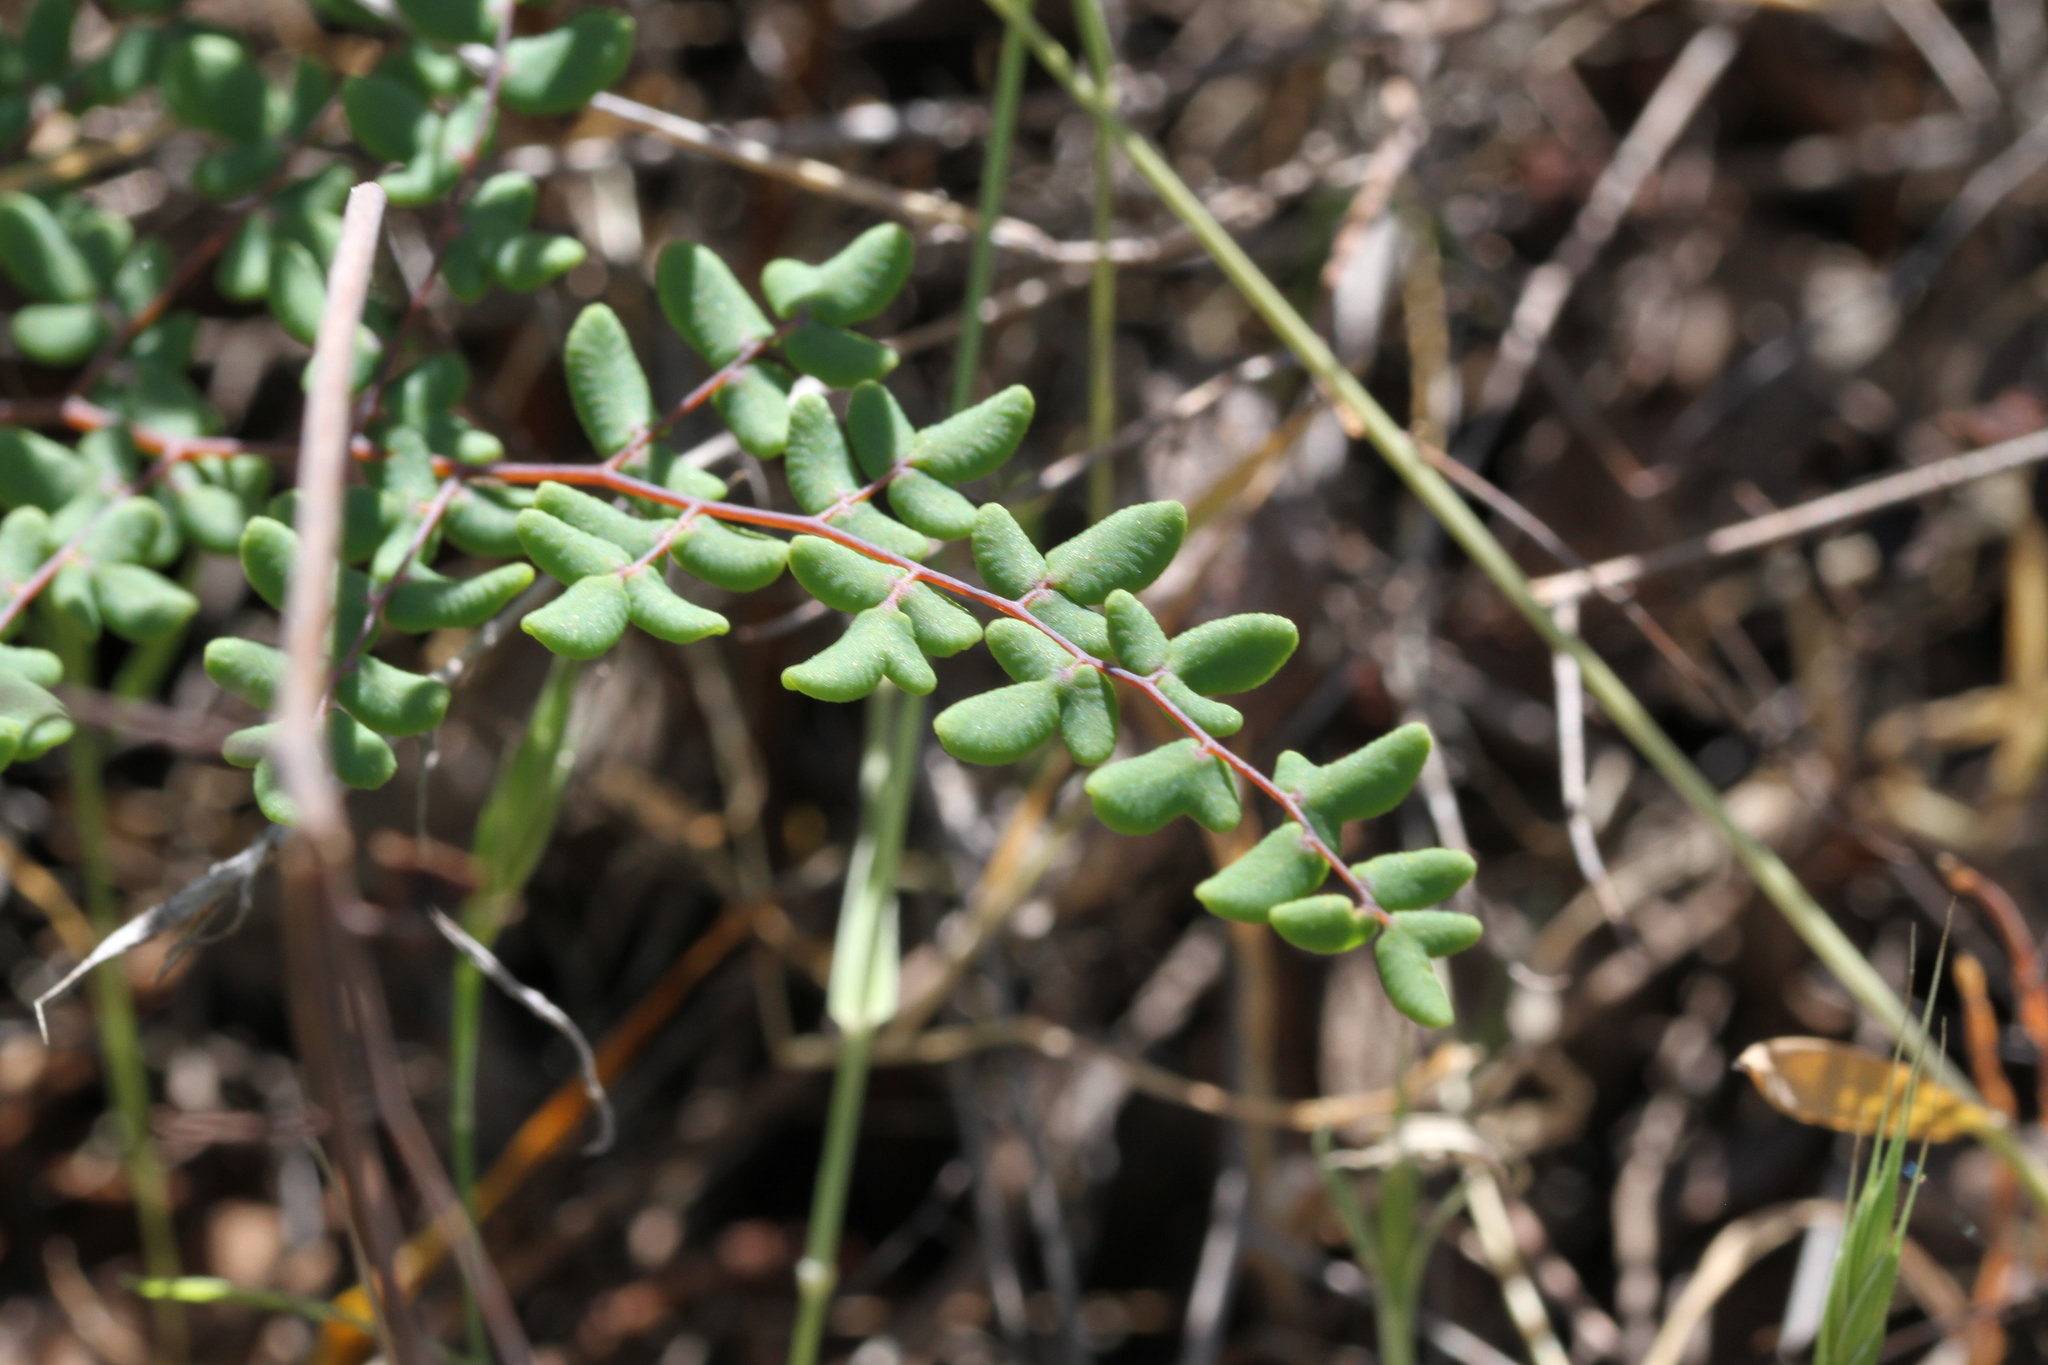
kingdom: Plantae
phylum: Tracheophyta
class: Polypodiopsida
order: Polypodiales
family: Pteridaceae
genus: Pellaea
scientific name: Pellaea andromedifolia
